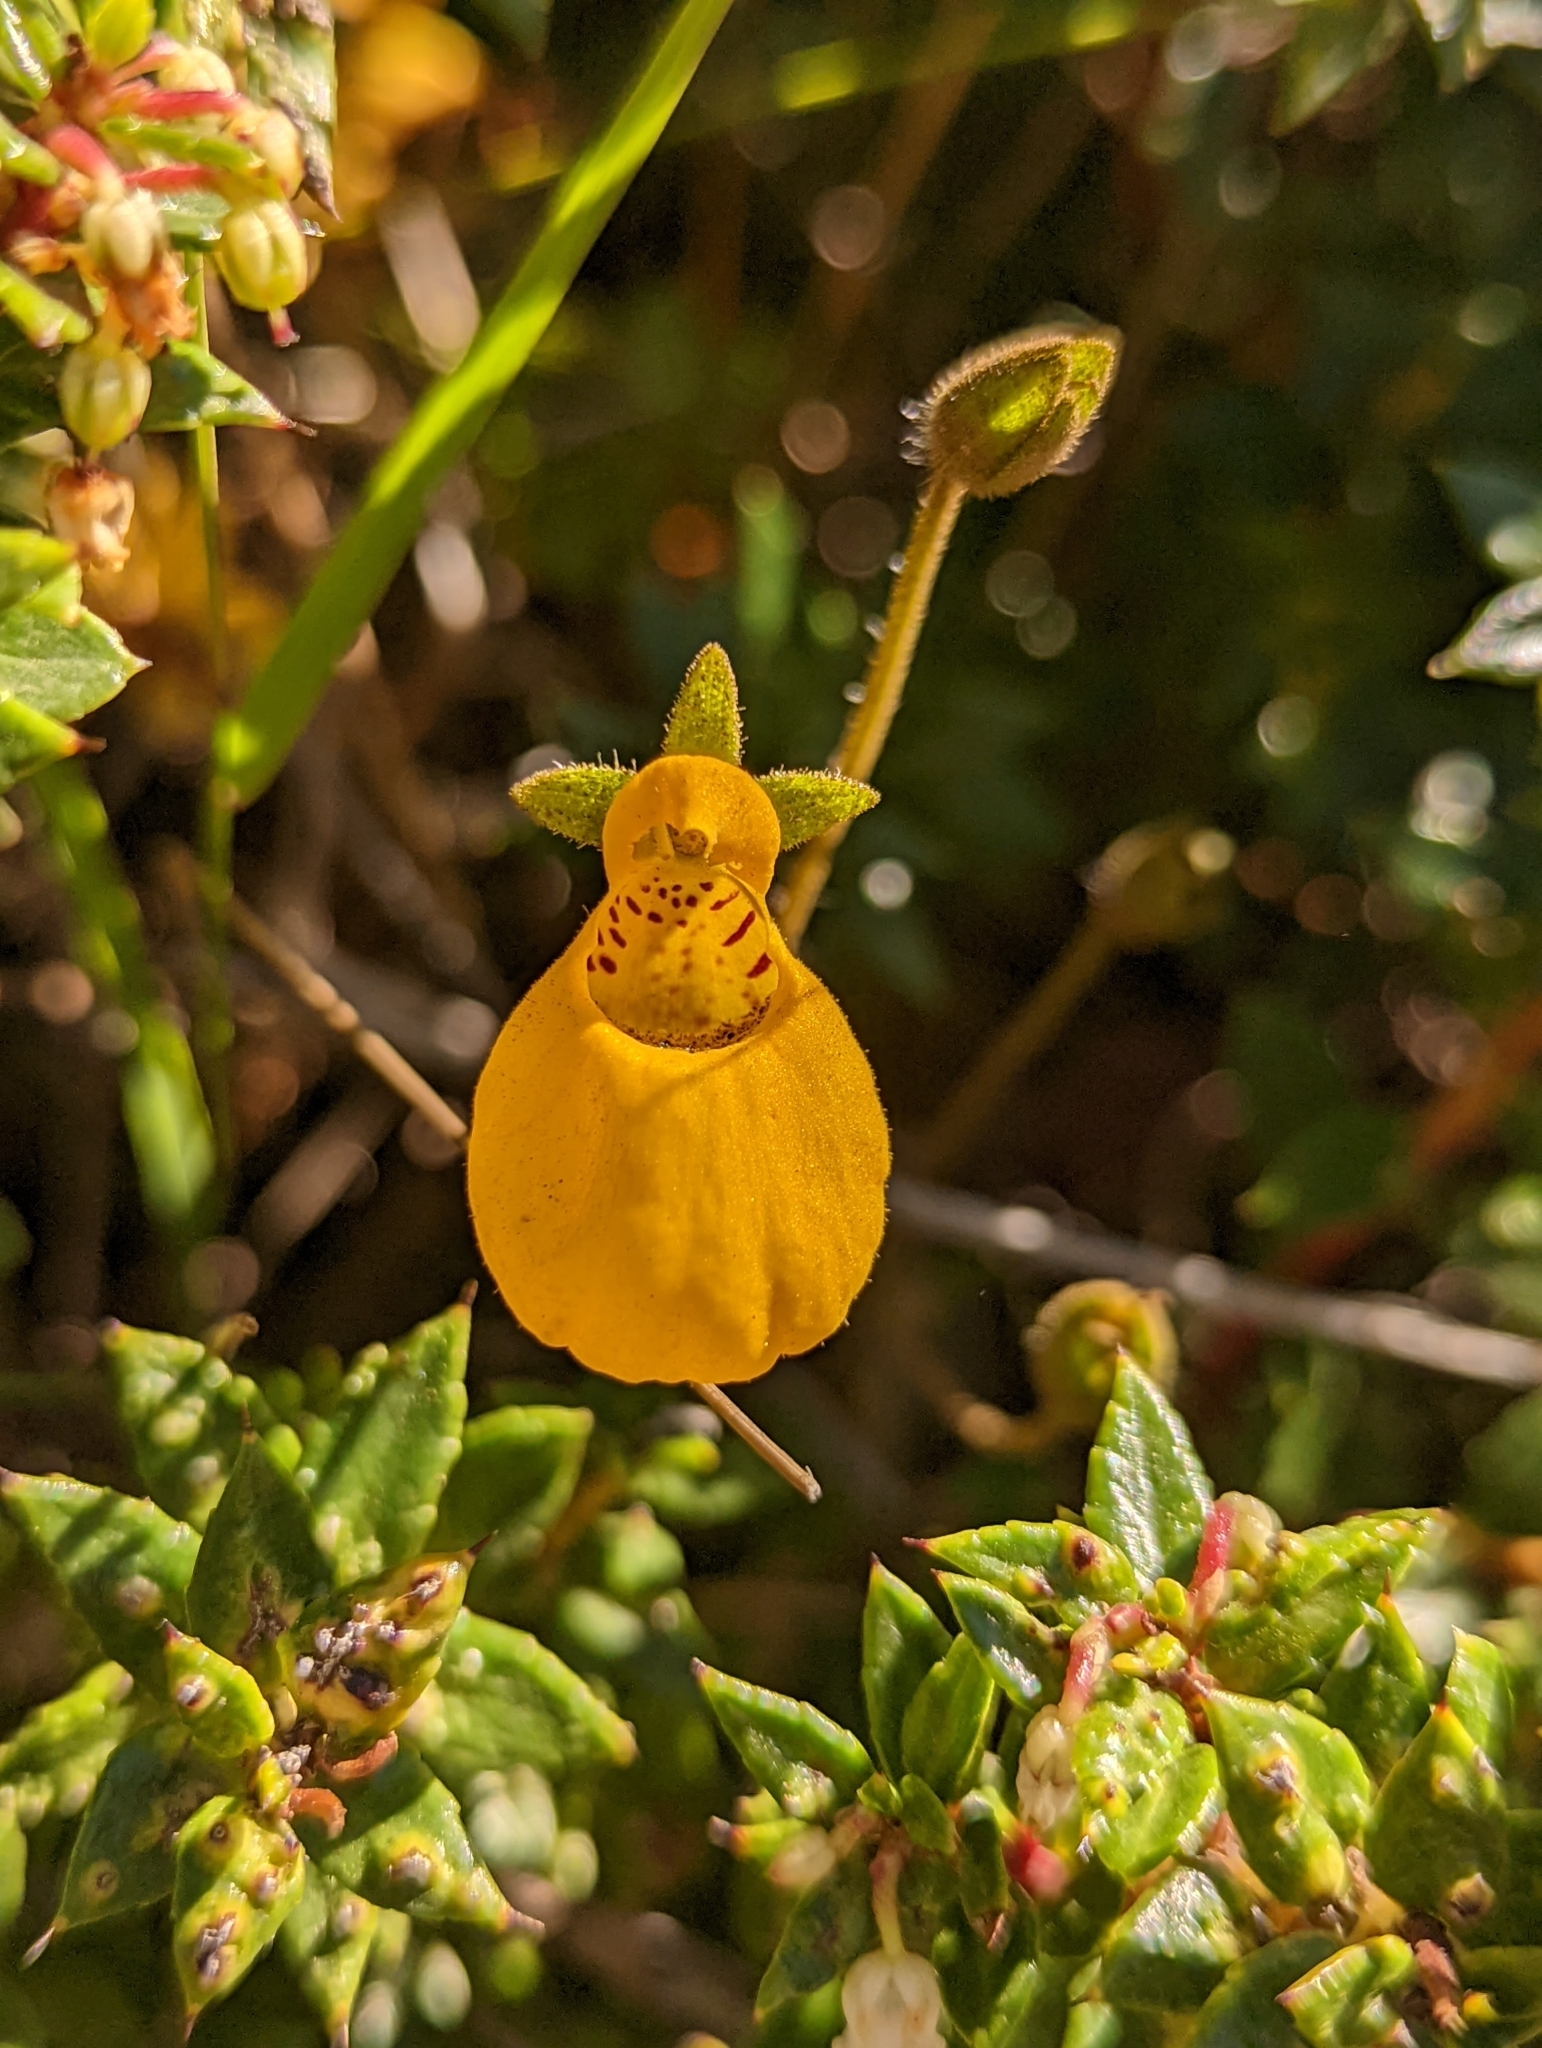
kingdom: Plantae
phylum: Tracheophyta
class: Magnoliopsida
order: Lamiales
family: Calceolariaceae
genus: Calceolaria
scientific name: Calceolaria biflora
